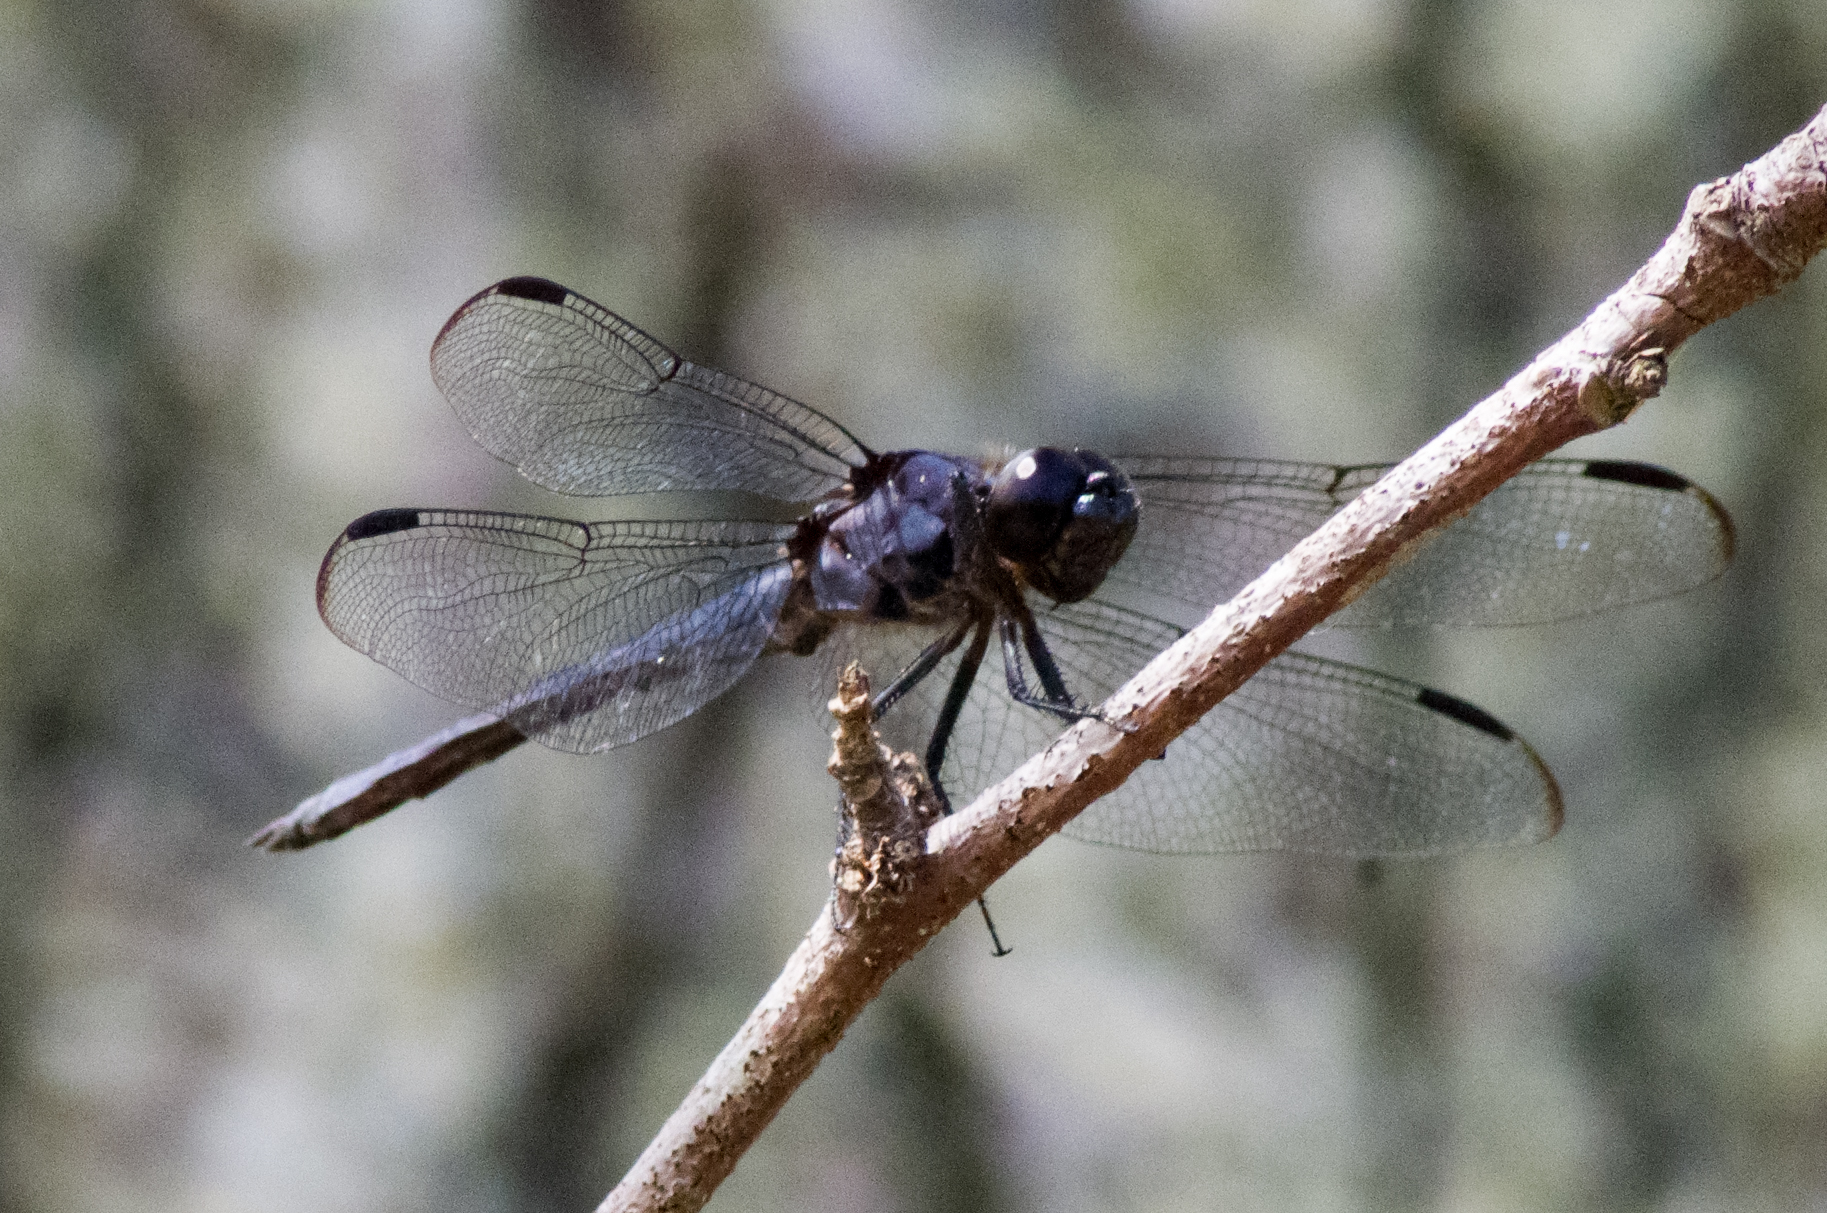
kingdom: Animalia
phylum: Arthropoda
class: Insecta
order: Odonata
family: Libellulidae
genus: Libellula
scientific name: Libellula incesta
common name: Slaty skimmer
